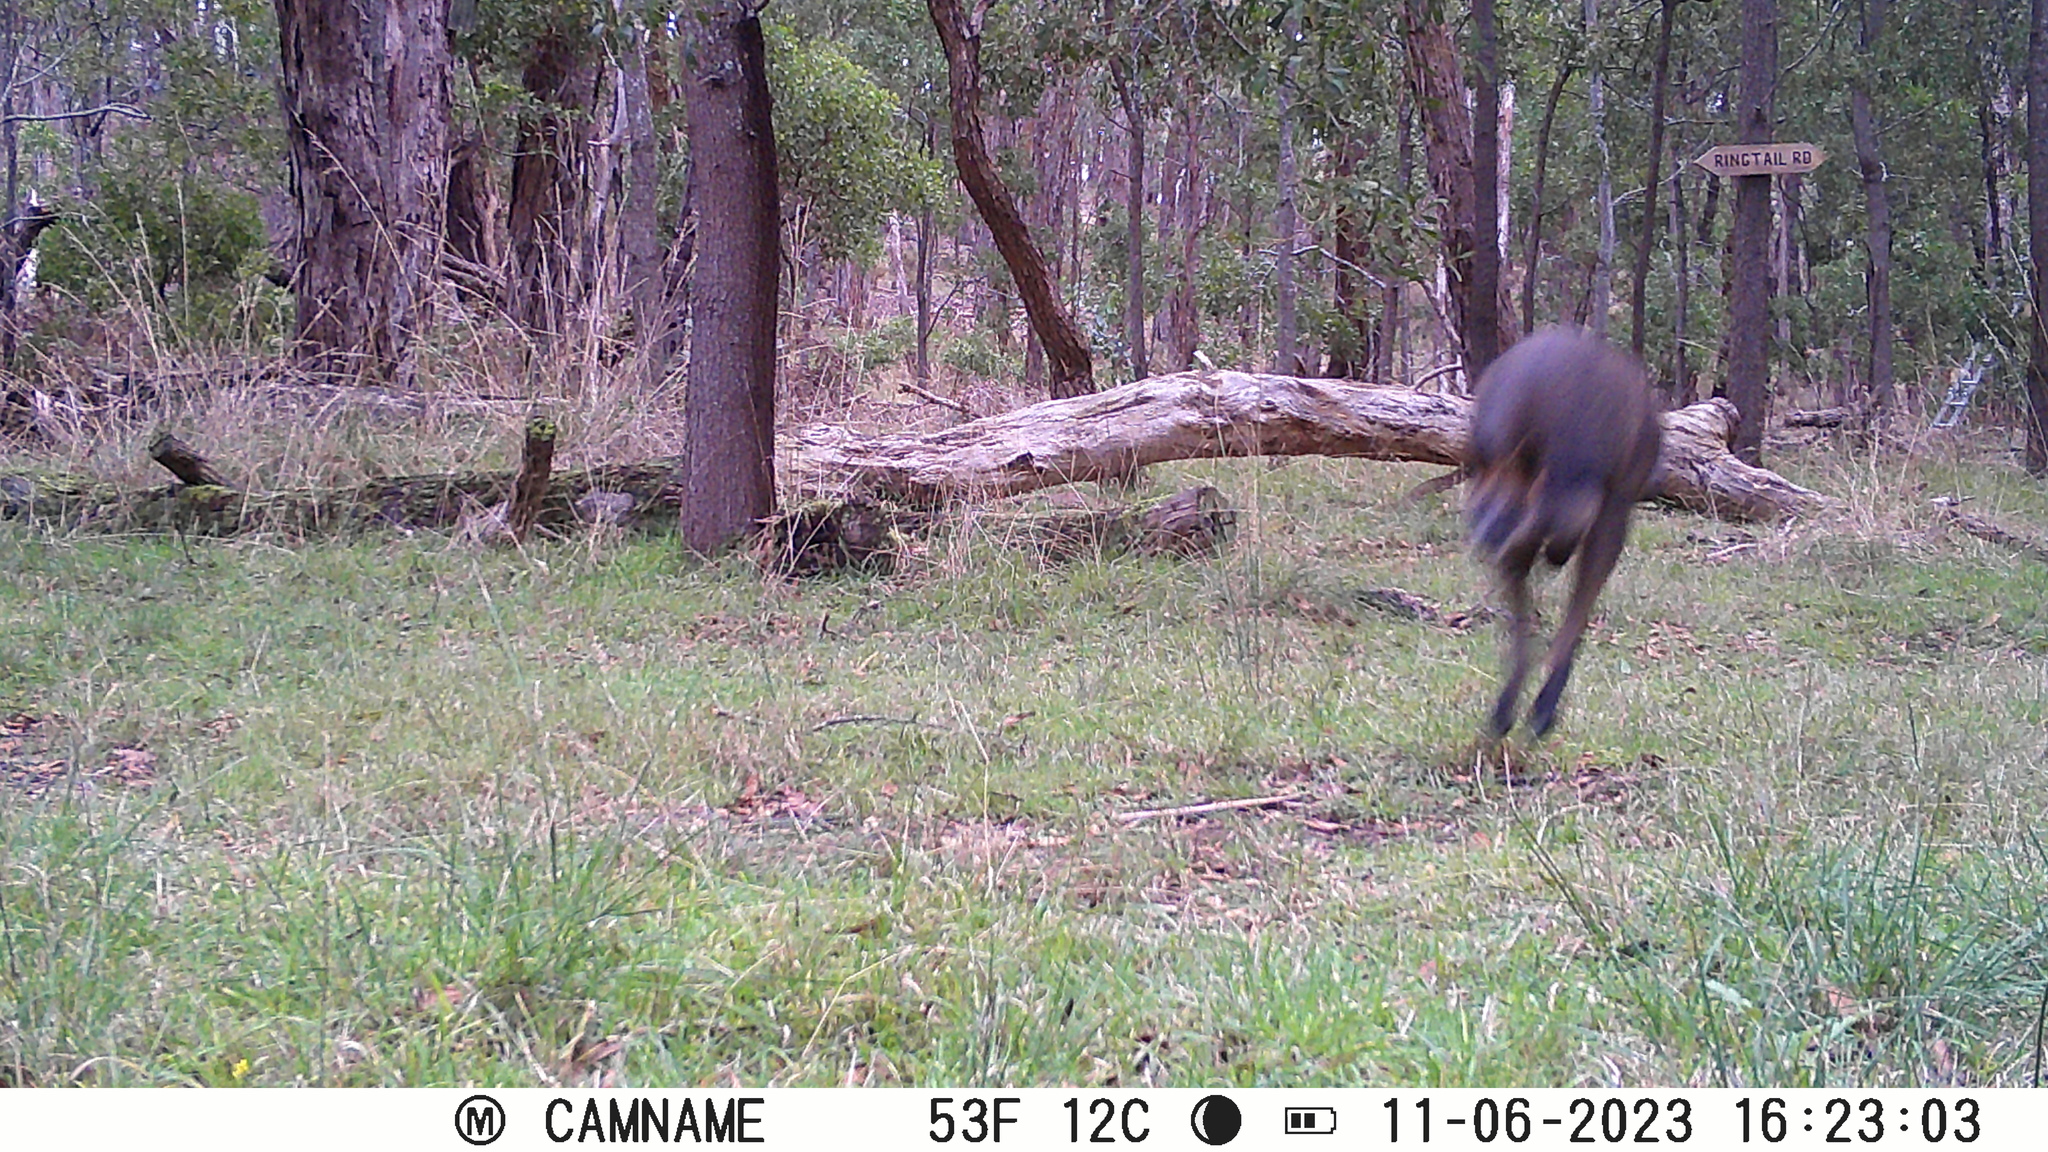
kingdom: Animalia
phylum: Chordata
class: Mammalia
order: Diprotodontia
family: Macropodidae
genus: Wallabia
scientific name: Wallabia bicolor
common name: Swamp wallaby
